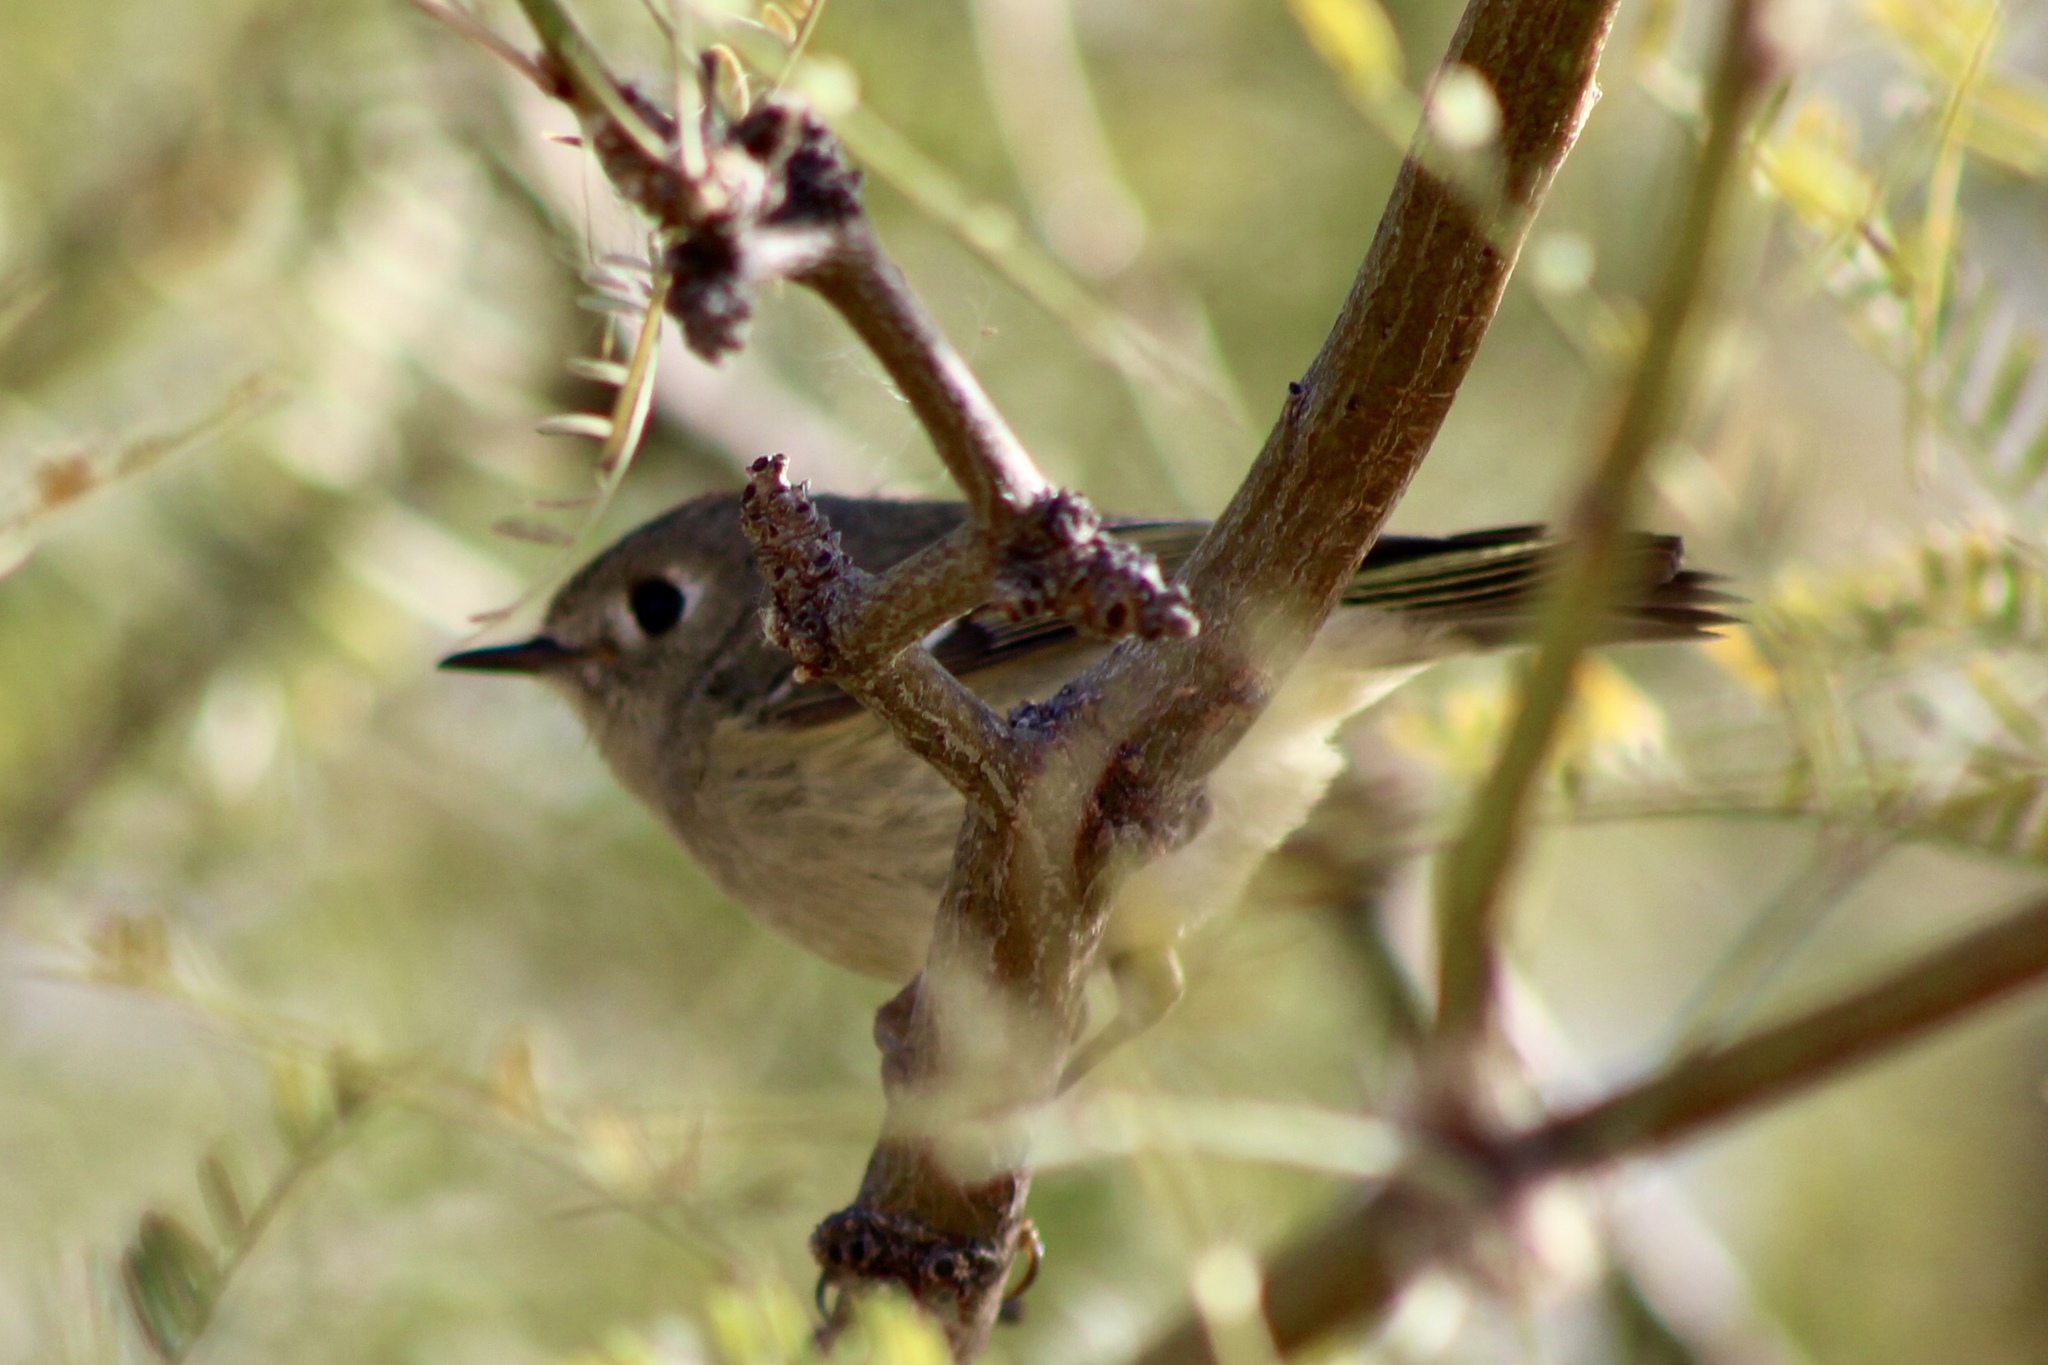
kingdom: Animalia
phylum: Chordata
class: Aves
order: Passeriformes
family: Regulidae
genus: Regulus
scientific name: Regulus calendula
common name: Ruby-crowned kinglet
